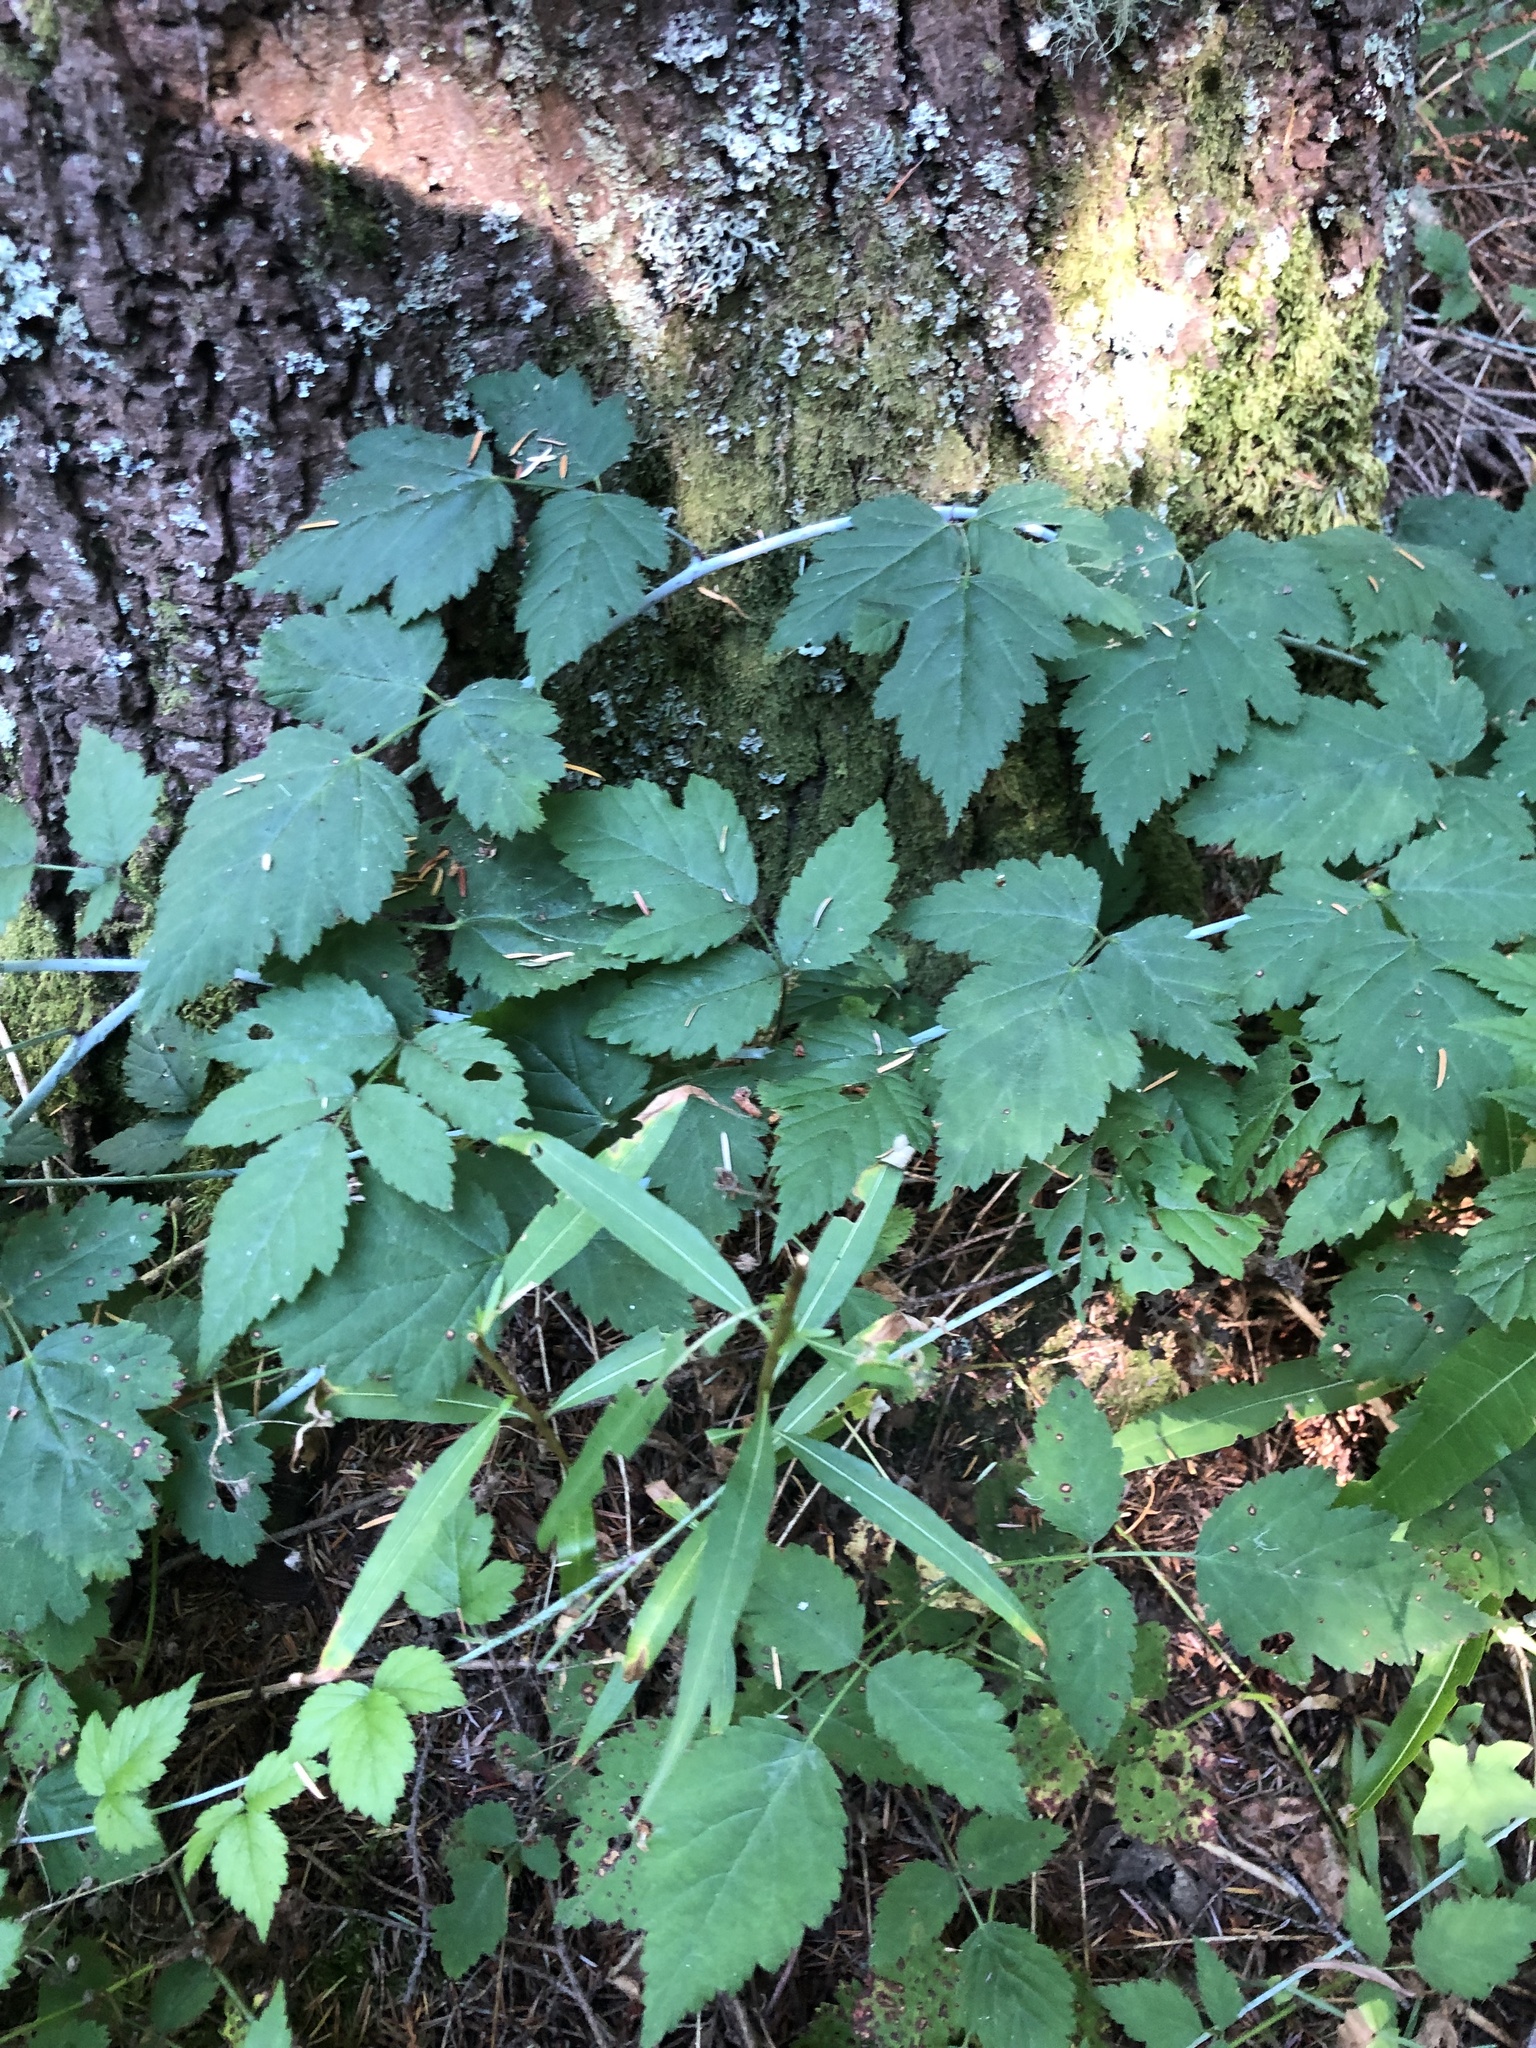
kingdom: Plantae
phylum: Tracheophyta
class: Magnoliopsida
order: Myrtales
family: Onagraceae
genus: Chamaenerion
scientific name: Chamaenerion angustifolium
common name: Fireweed
